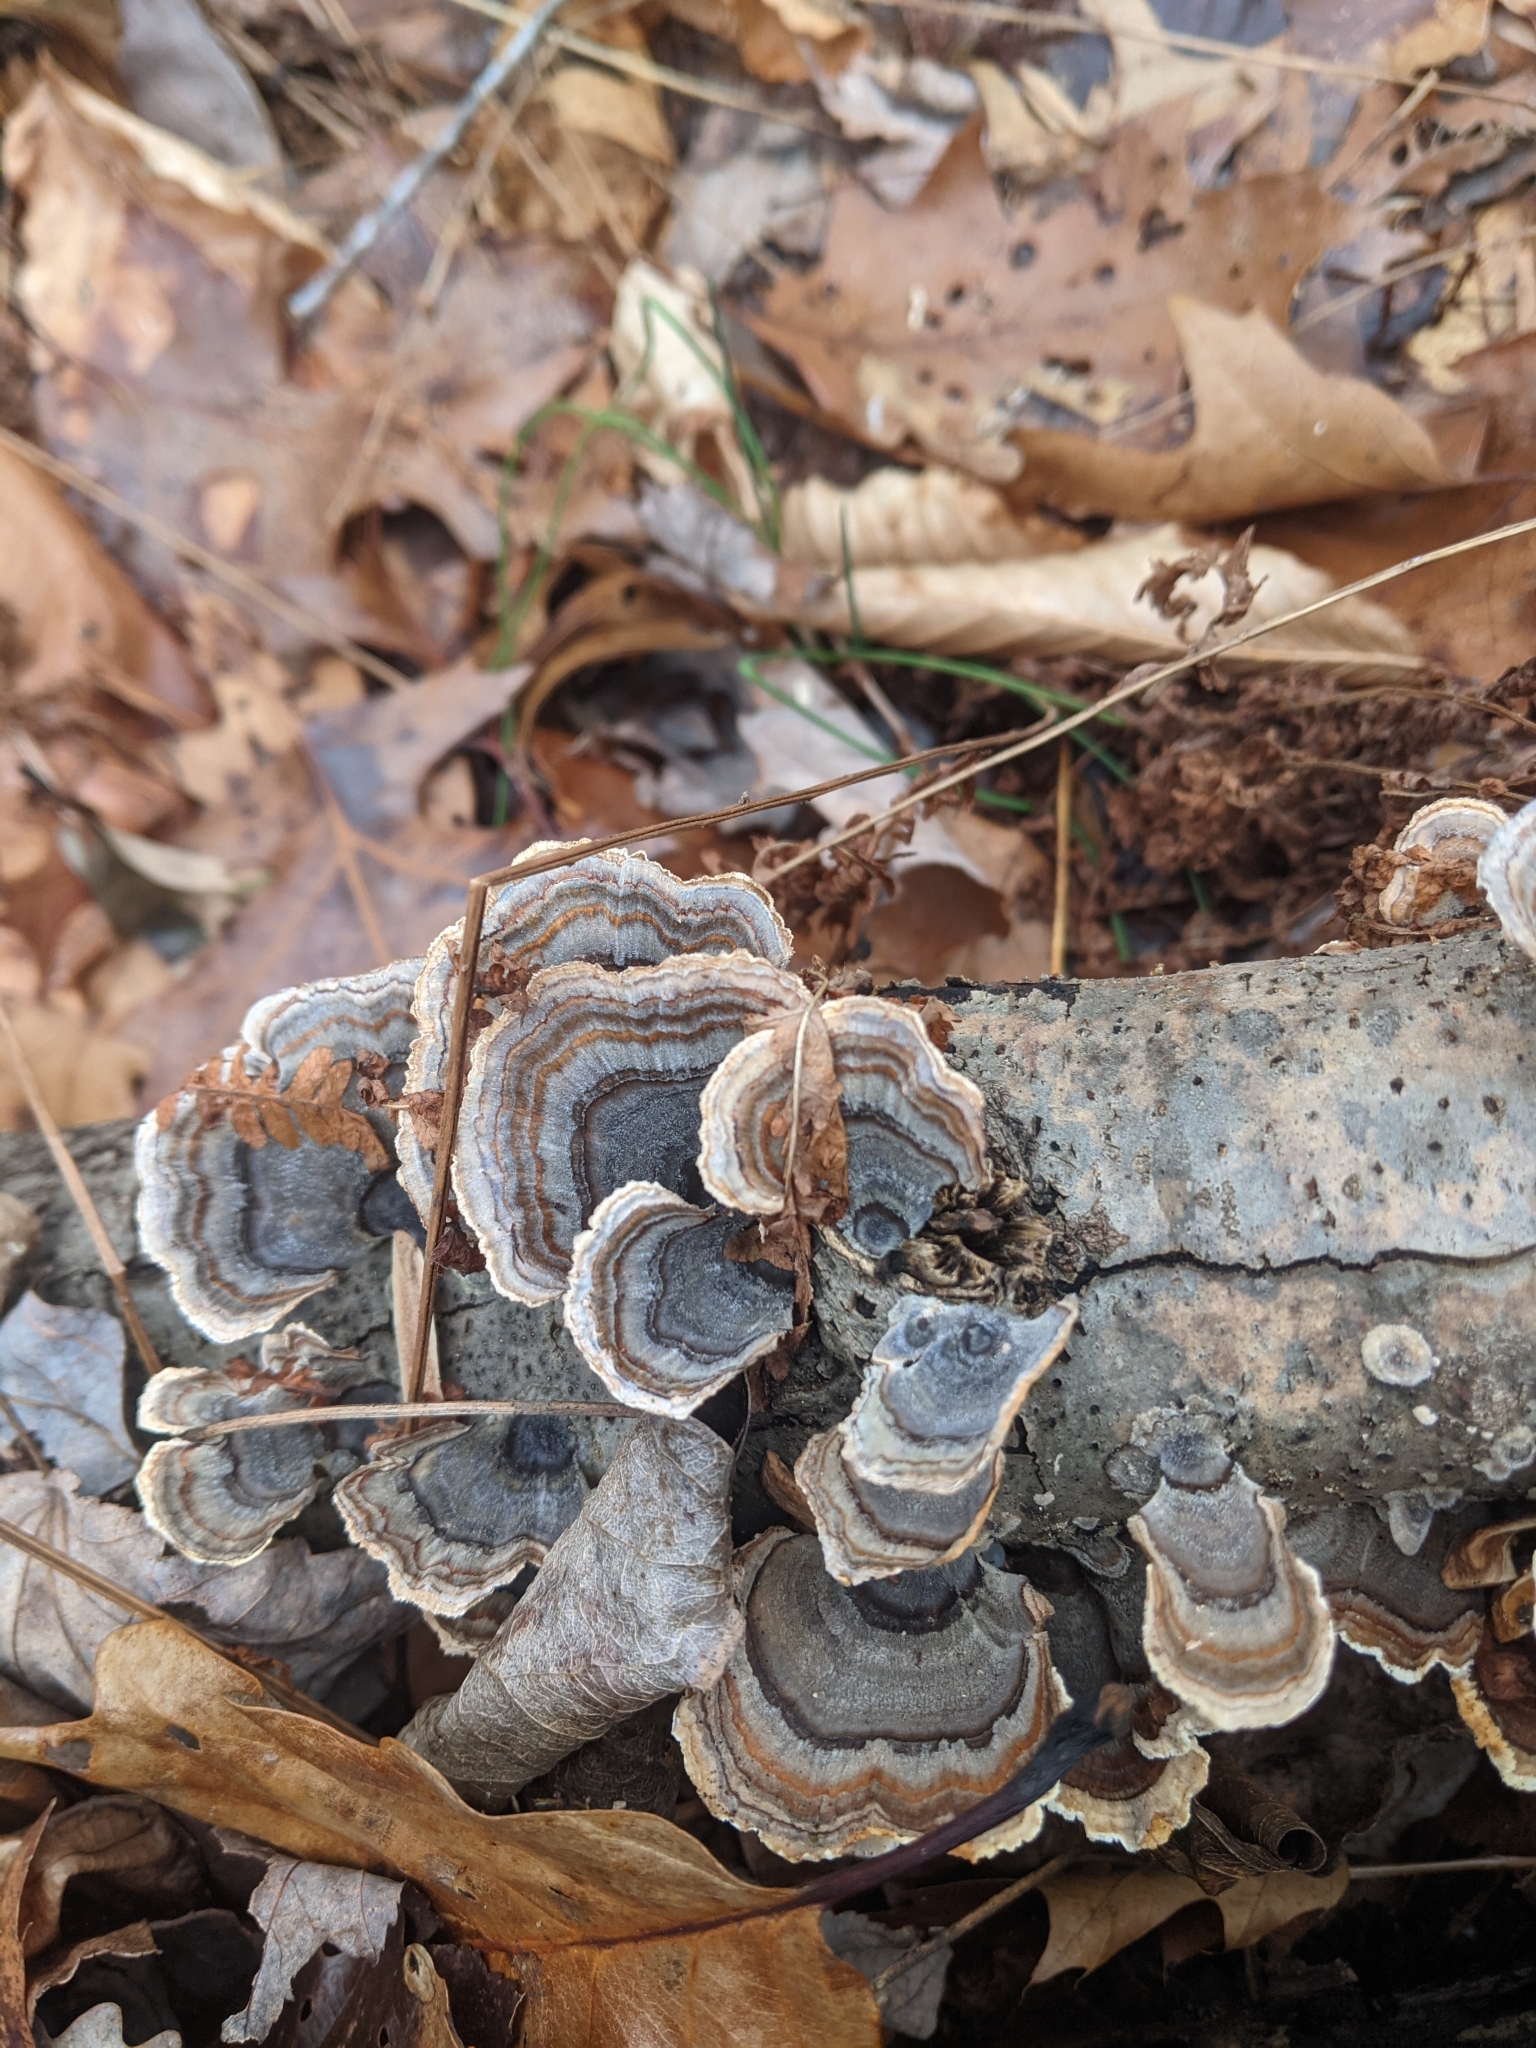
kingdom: Fungi
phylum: Basidiomycota
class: Agaricomycetes
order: Polyporales
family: Polyporaceae
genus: Trametes
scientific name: Trametes versicolor
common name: Turkeytail
